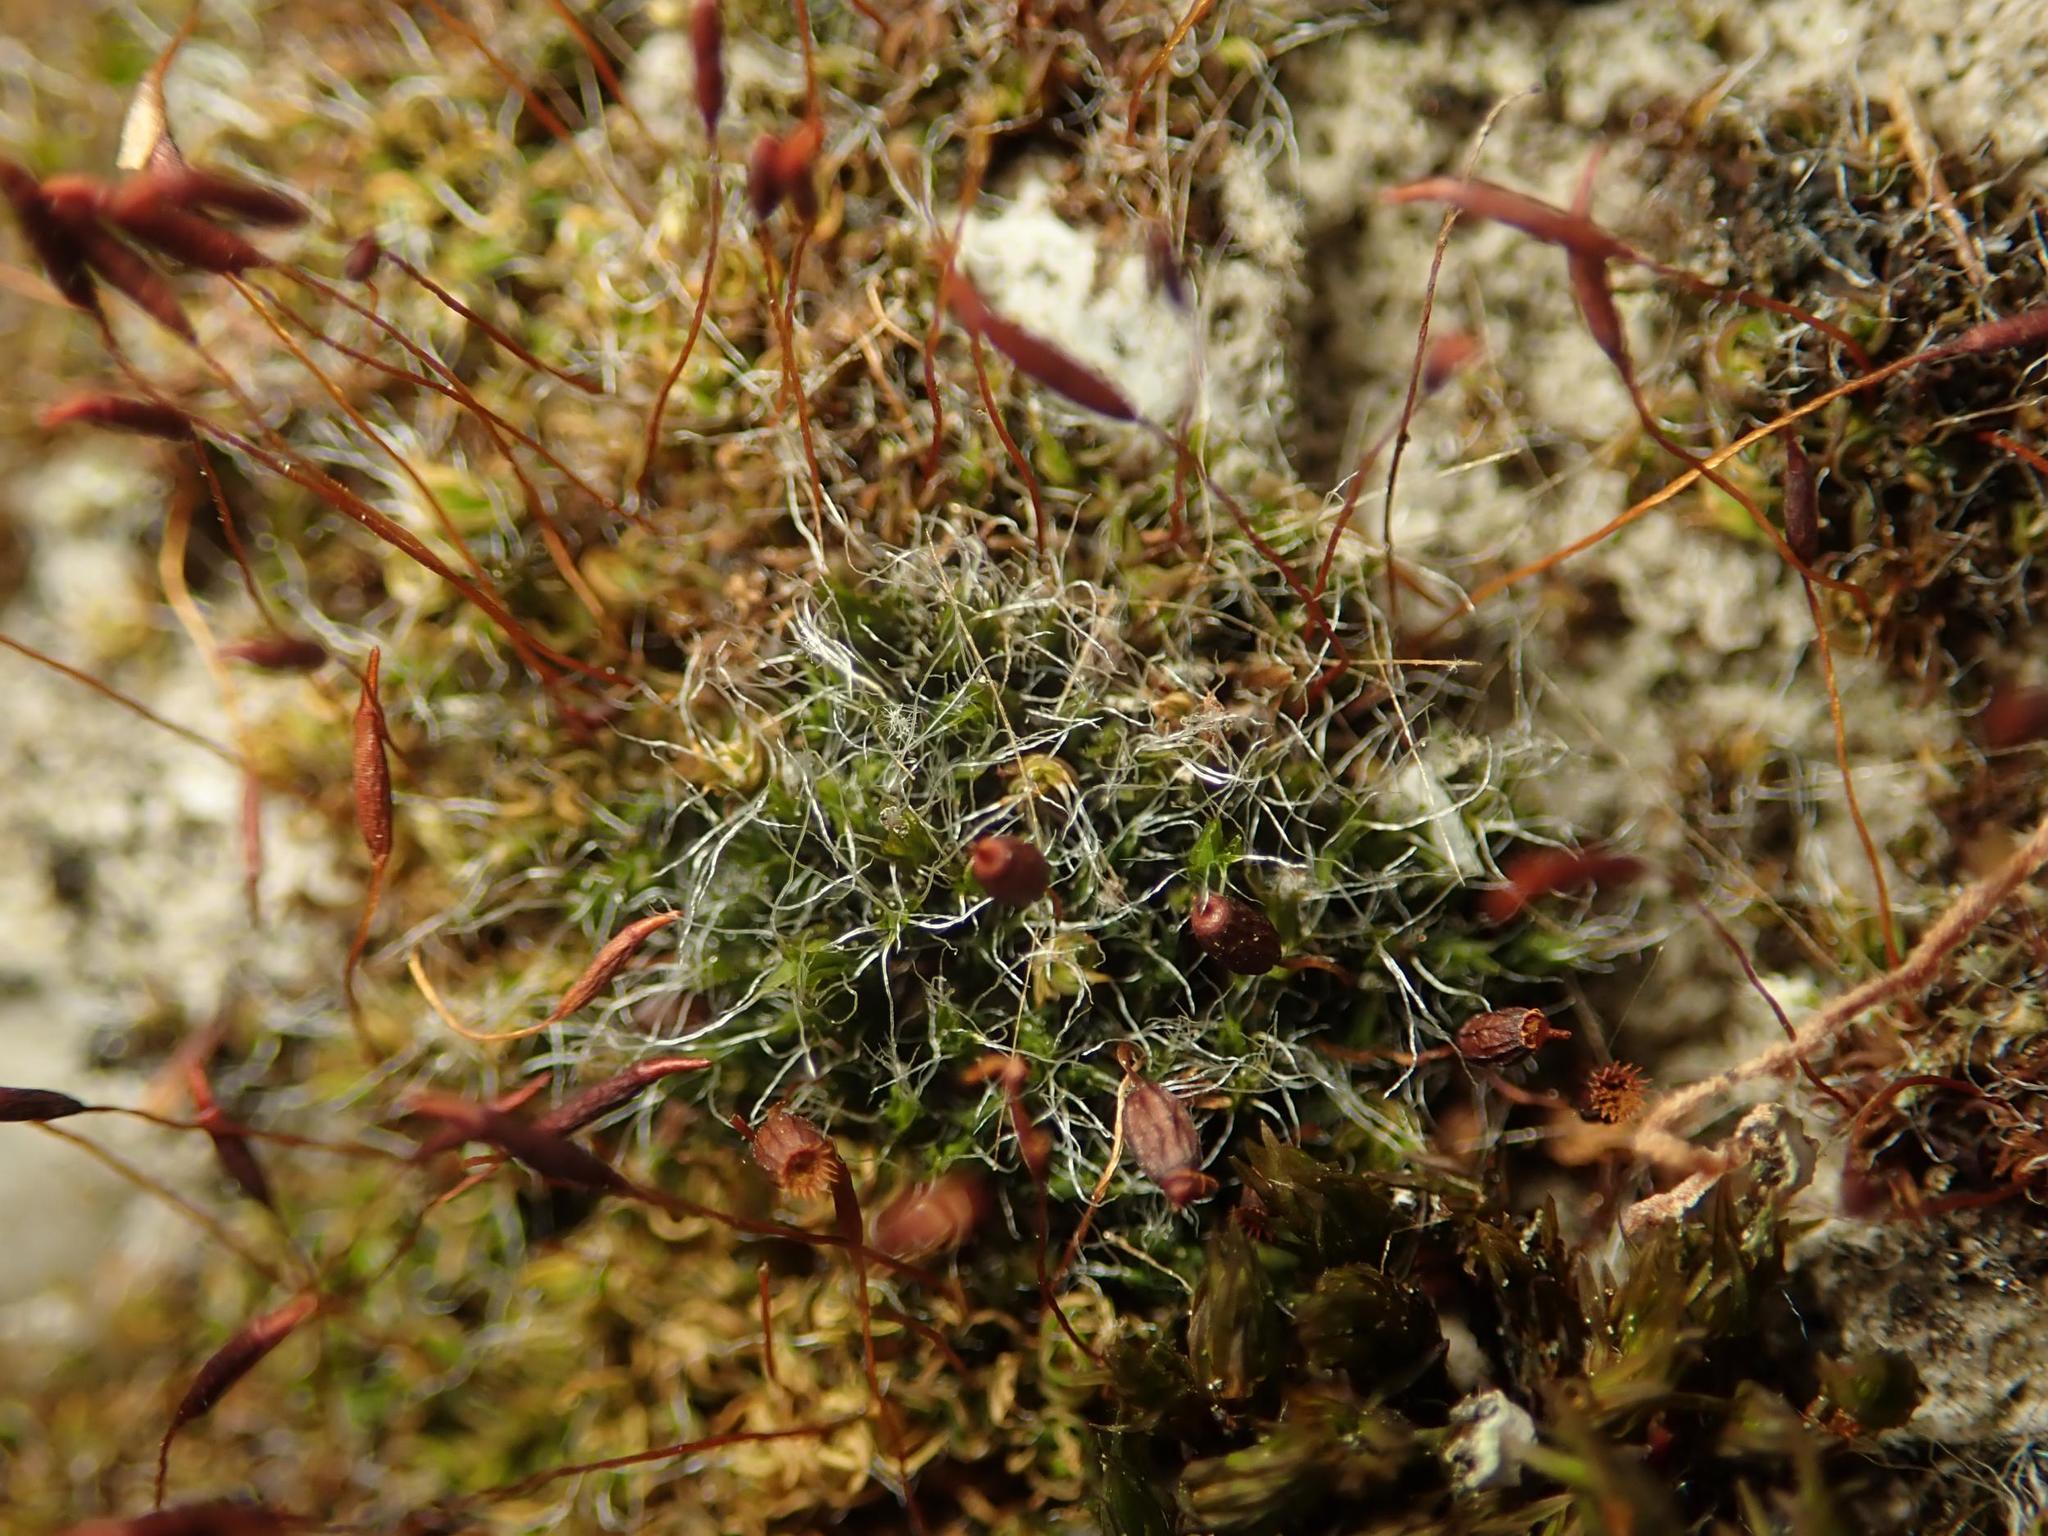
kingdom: Plantae
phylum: Bryophyta
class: Bryopsida
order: Grimmiales
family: Grimmiaceae
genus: Grimmia
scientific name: Grimmia pulvinata
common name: Grey-cushioned grimmia
